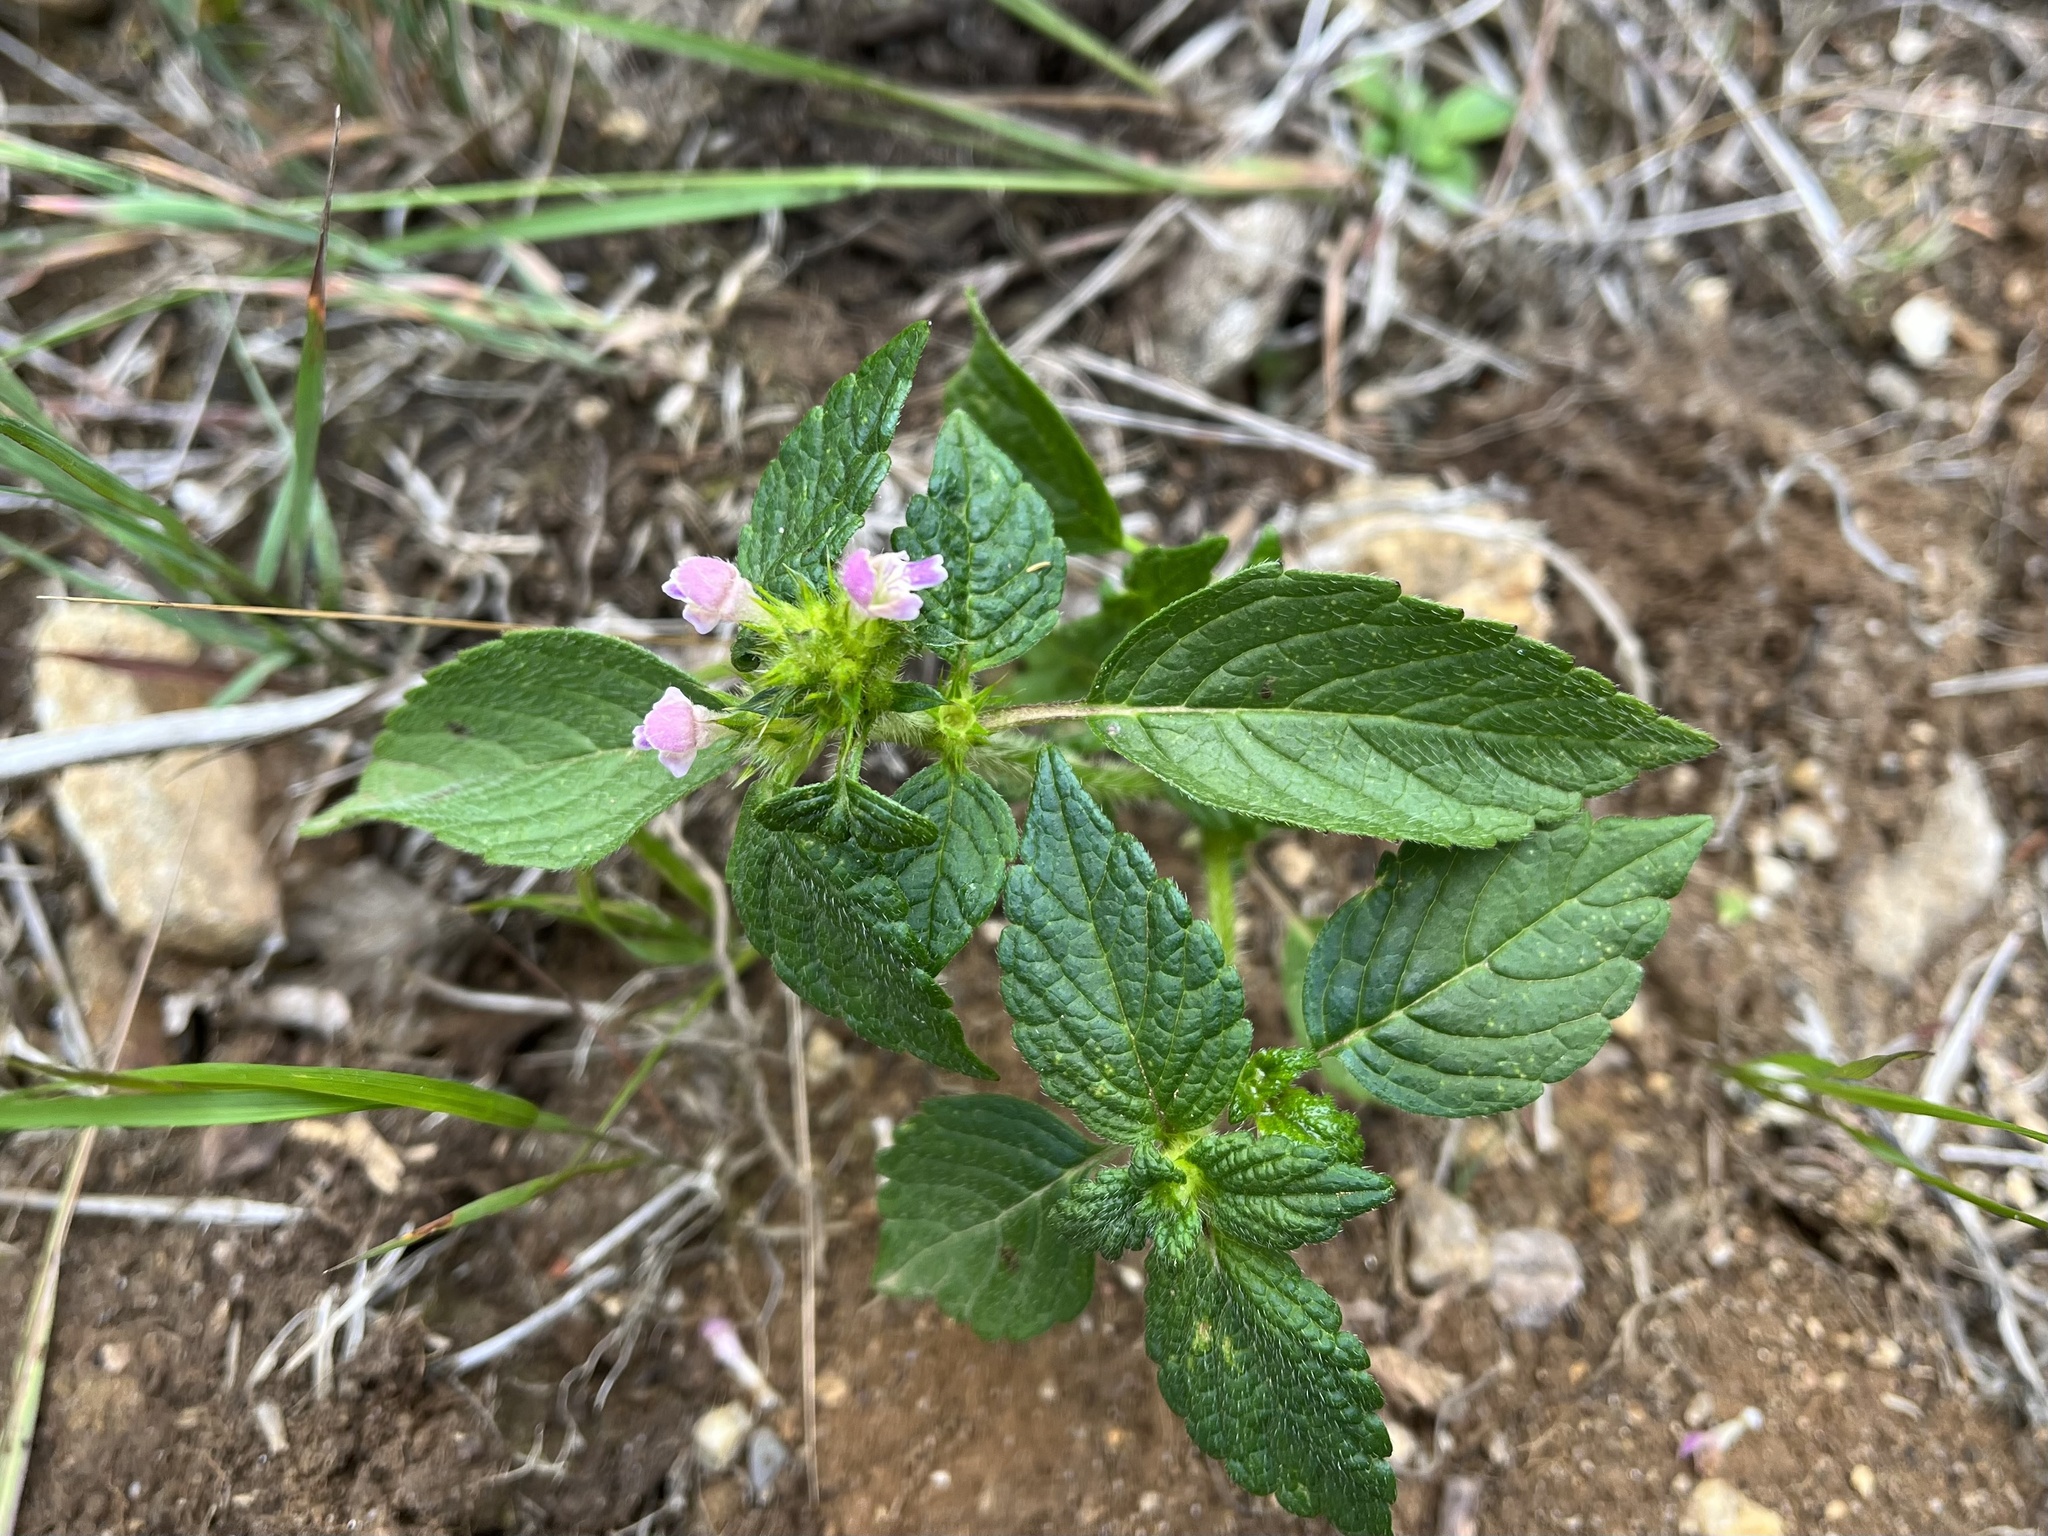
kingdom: Plantae
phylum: Tracheophyta
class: Magnoliopsida
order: Lamiales
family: Lamiaceae
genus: Galeopsis
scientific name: Galeopsis bifida
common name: Bifid hemp-nettle
